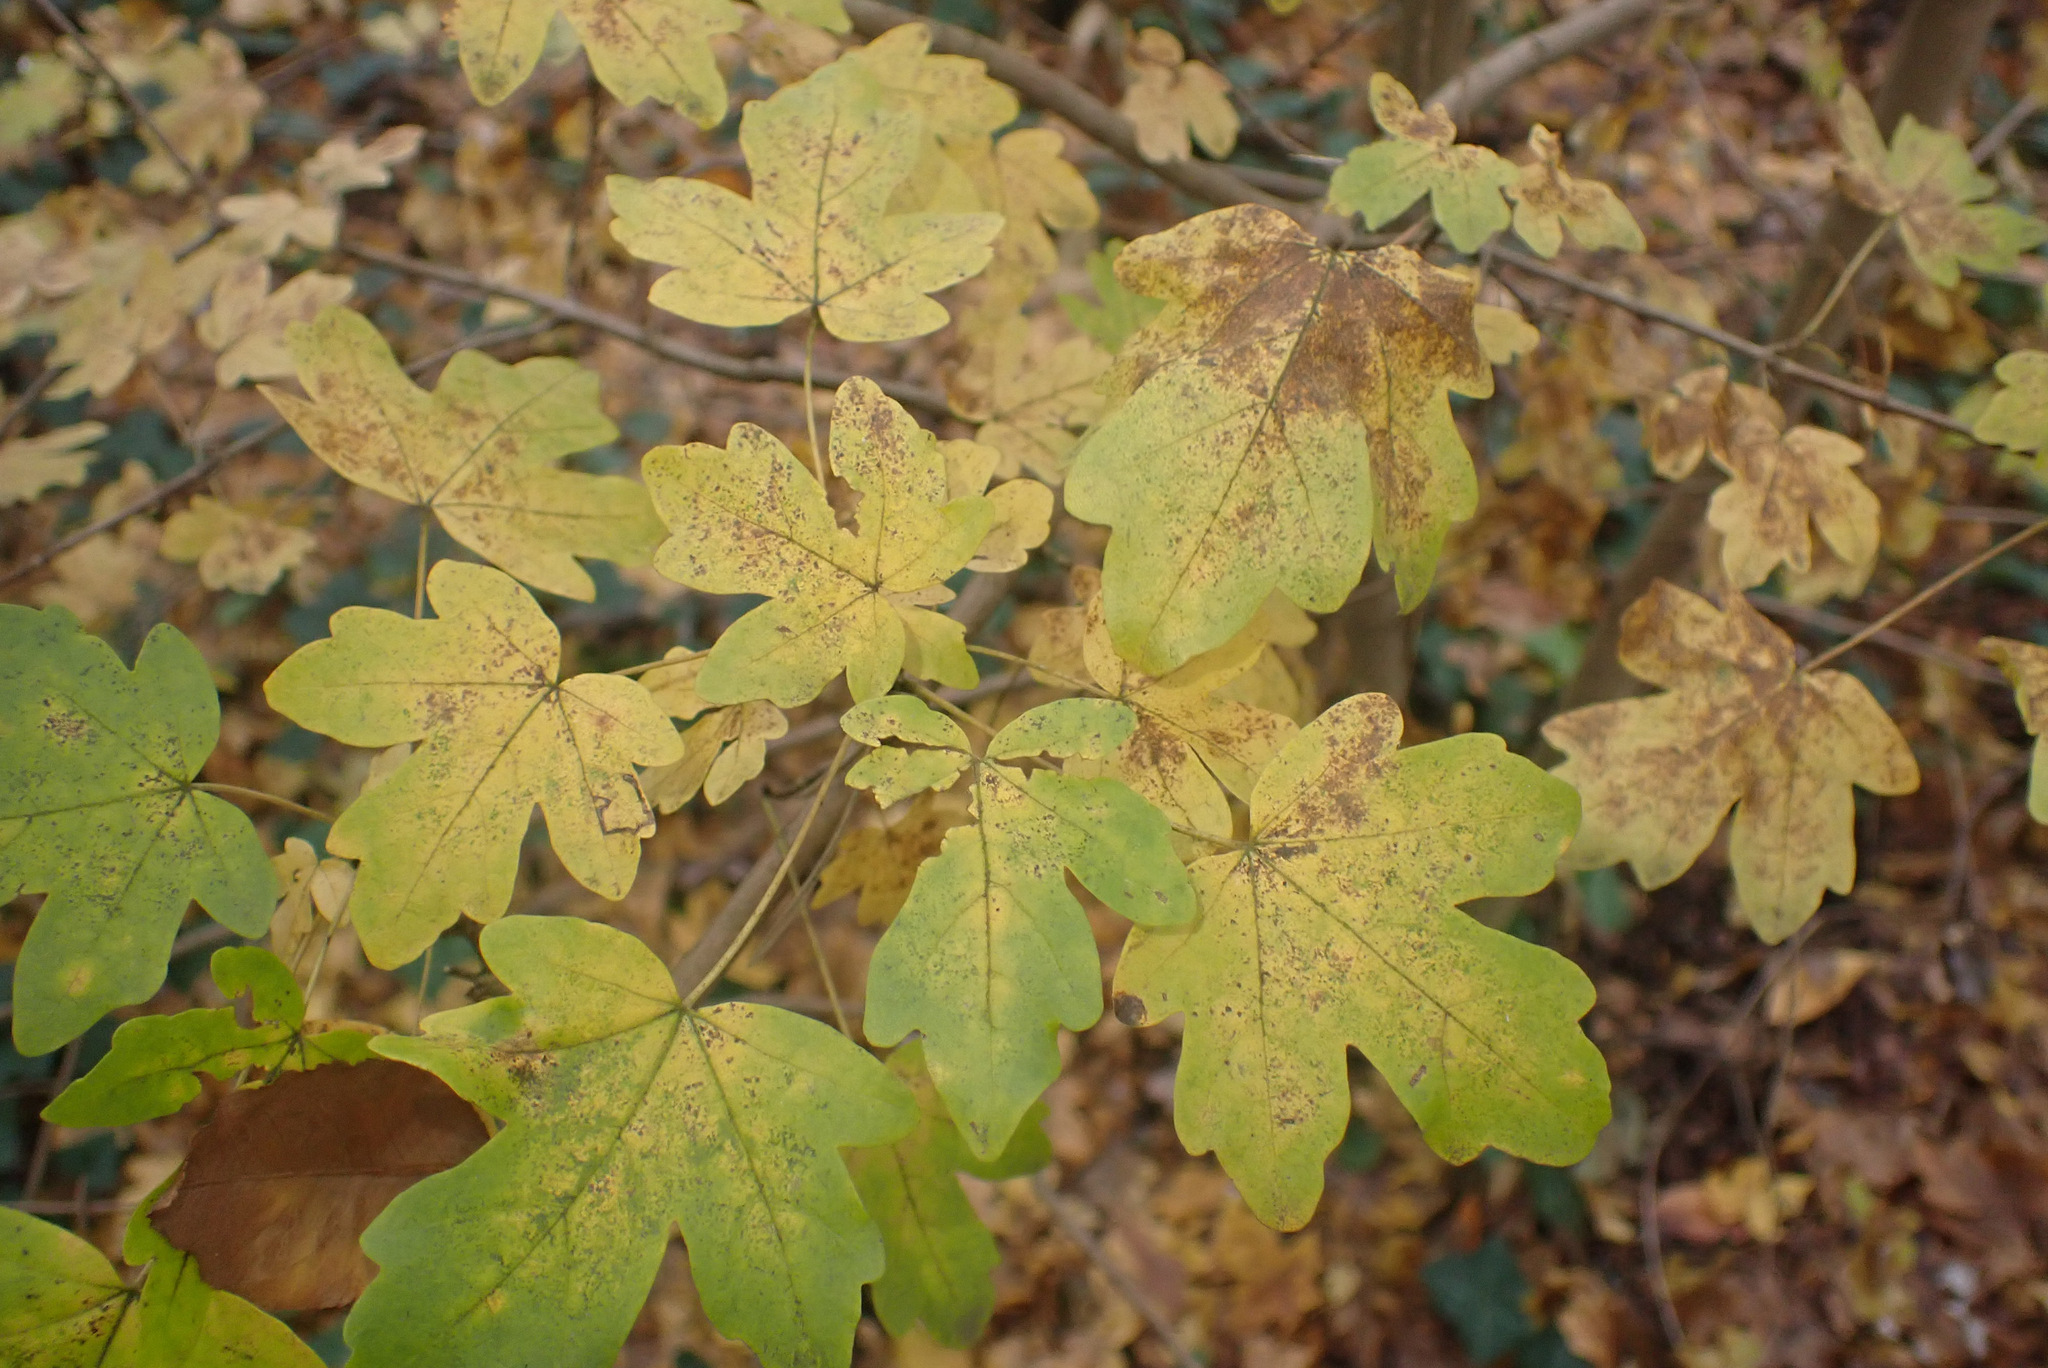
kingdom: Plantae
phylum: Tracheophyta
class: Magnoliopsida
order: Sapindales
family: Sapindaceae
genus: Acer
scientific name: Acer campestre
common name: Field maple
